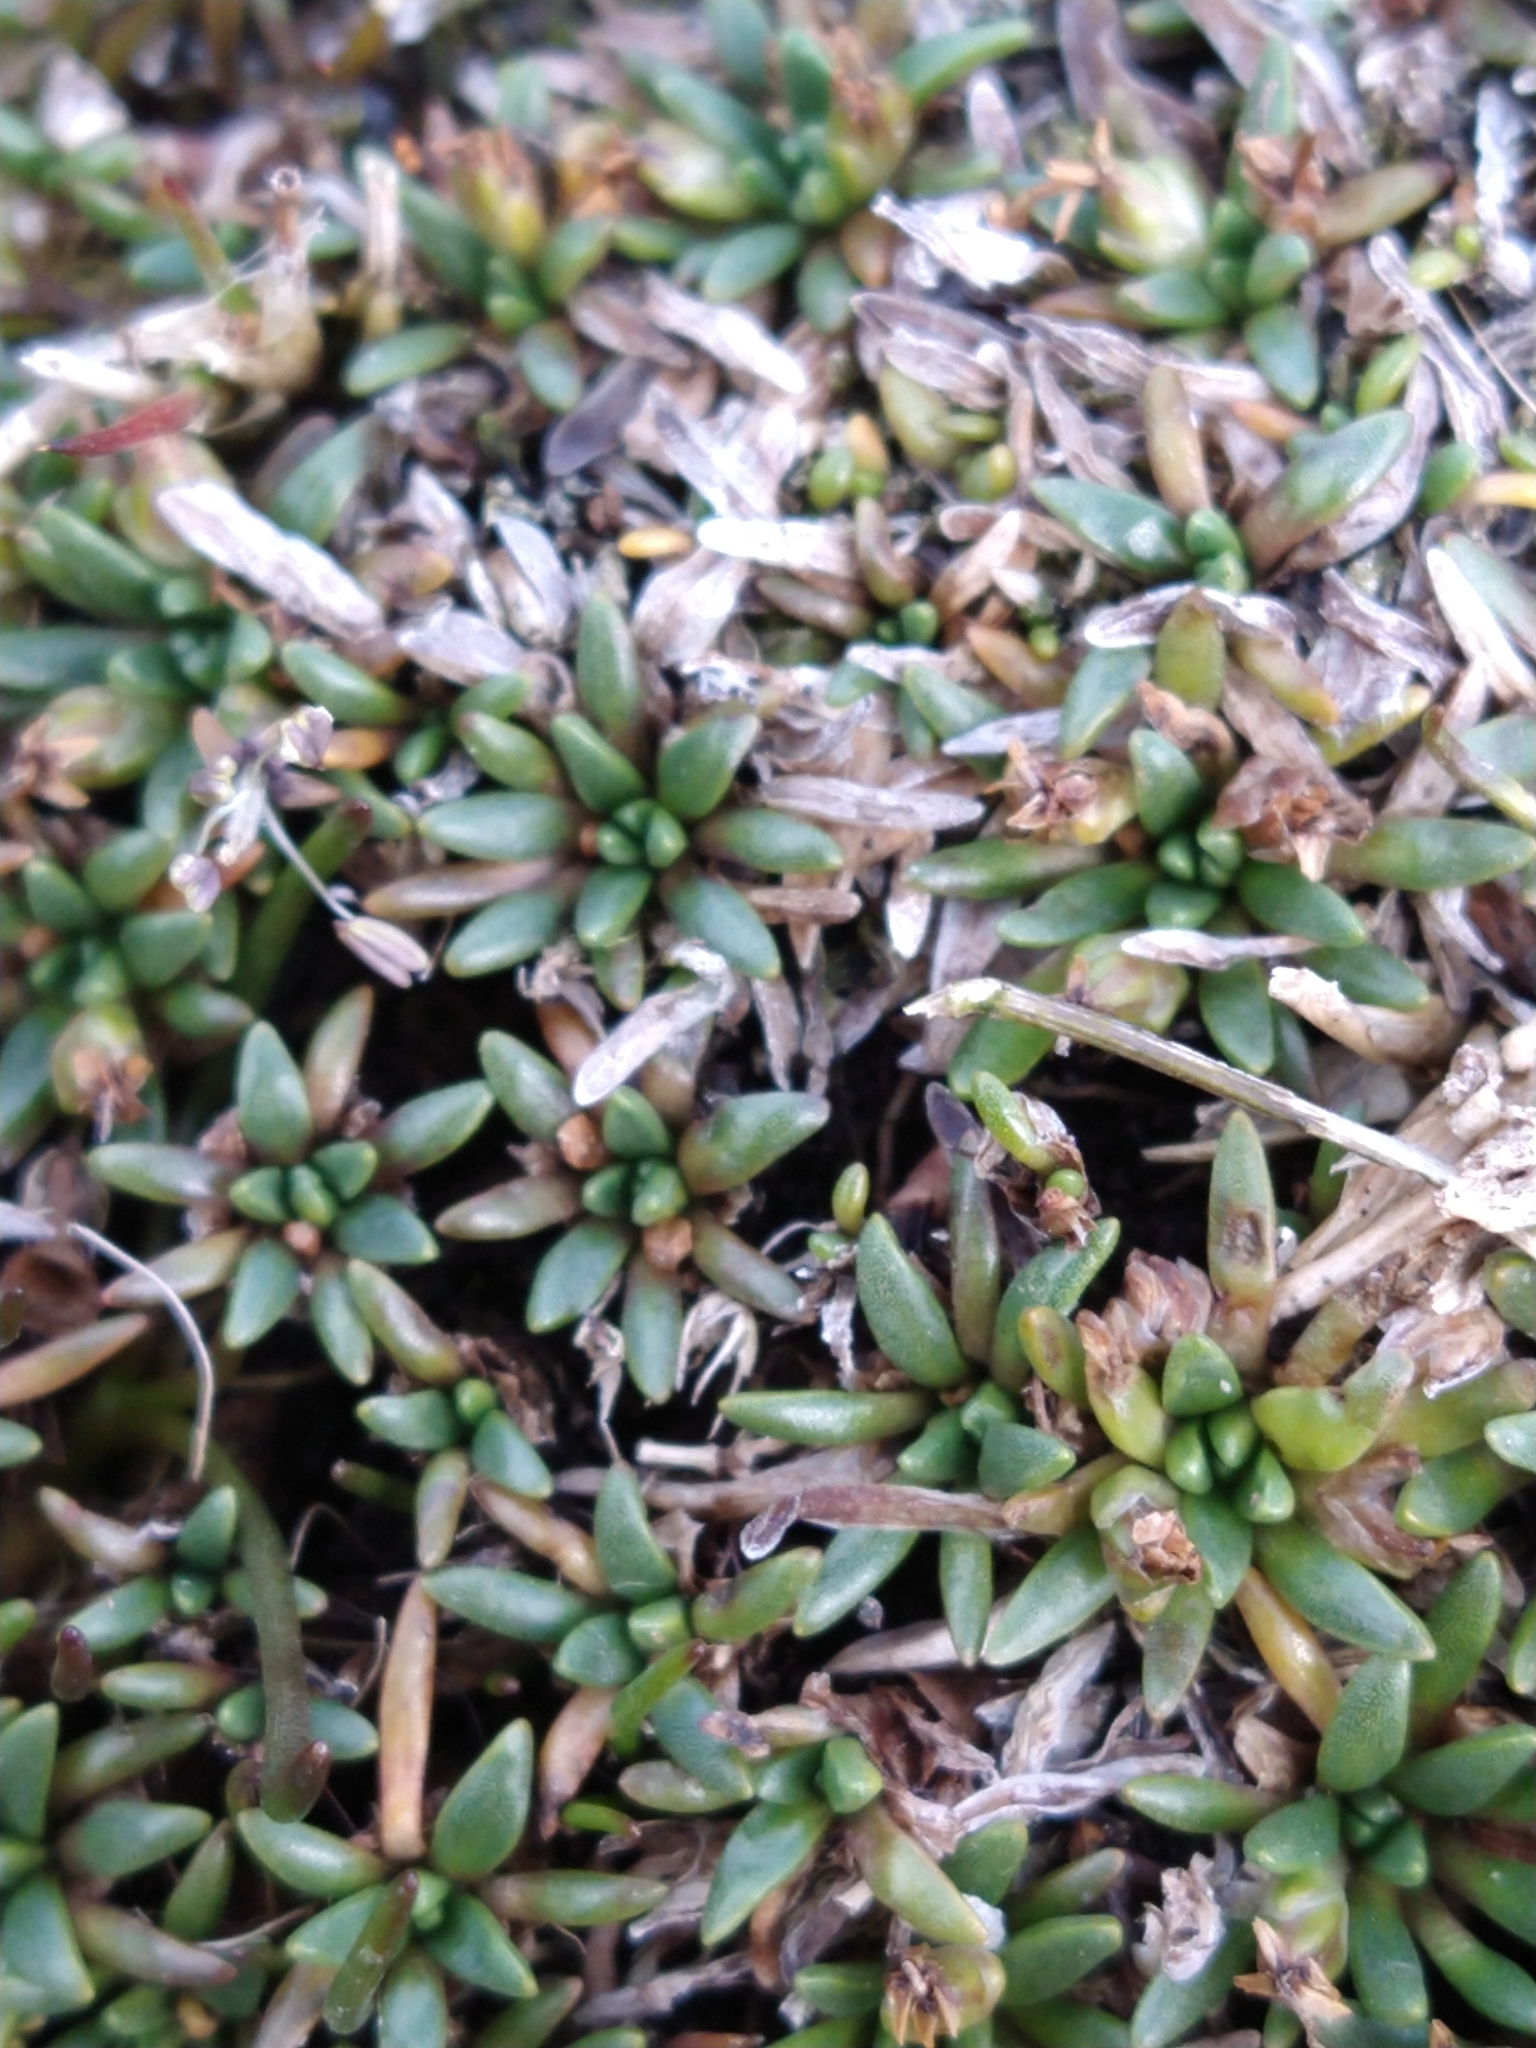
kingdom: Plantae
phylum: Tracheophyta
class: Magnoliopsida
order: Lamiales
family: Plantaginaceae
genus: Plantago
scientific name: Plantago barbata
